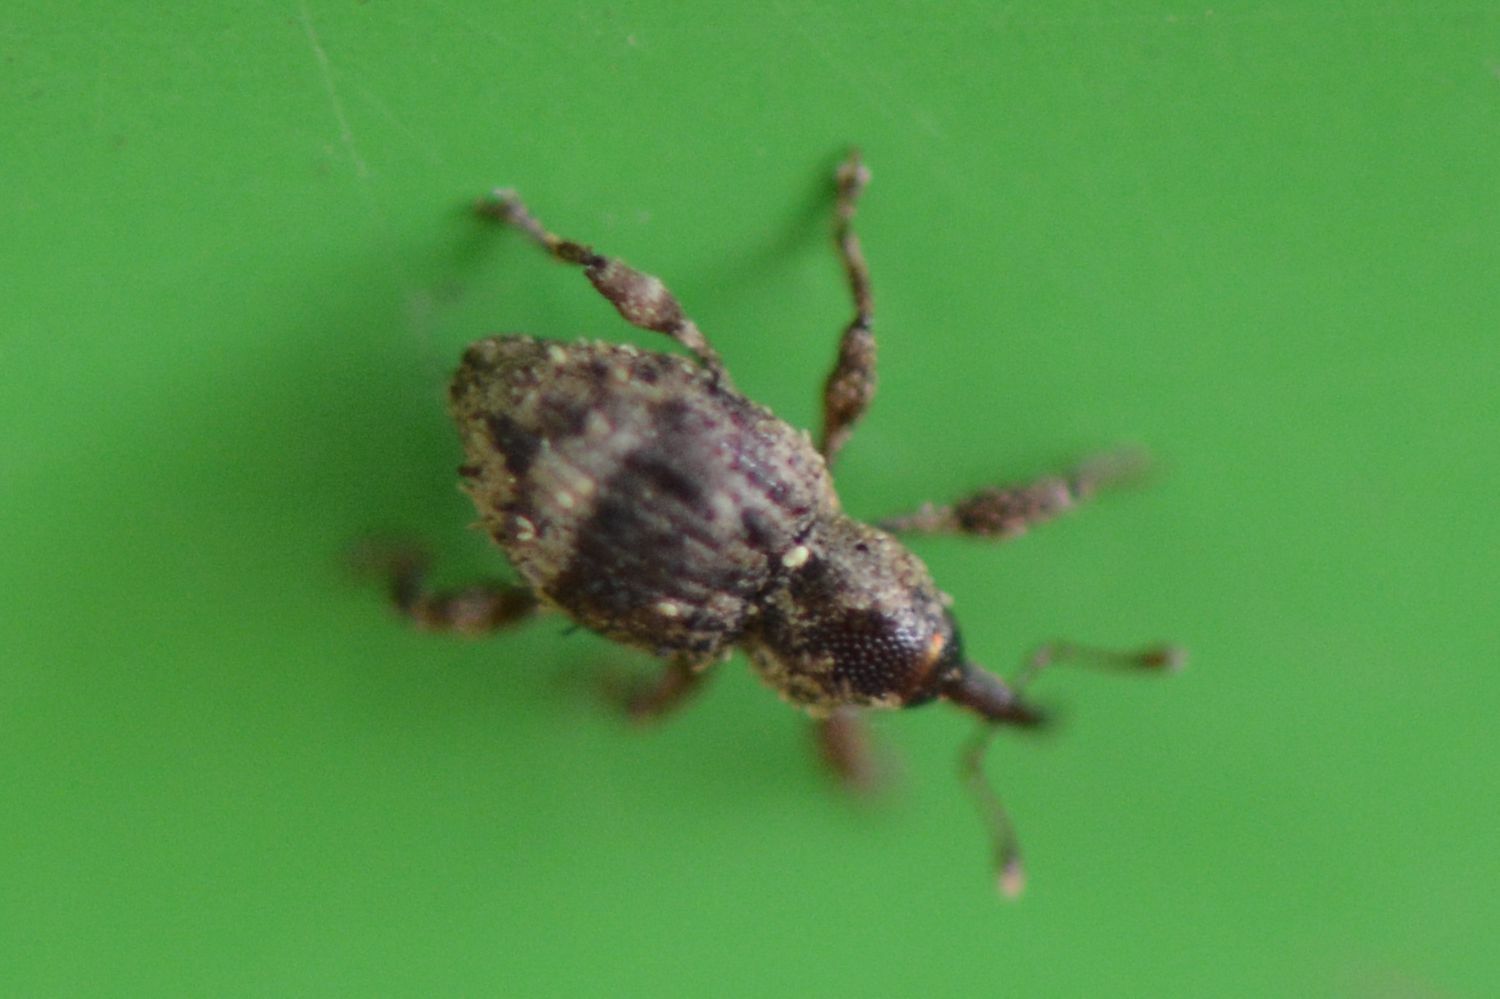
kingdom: Animalia
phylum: Arthropoda
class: Insecta
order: Coleoptera
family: Curculionidae
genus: Trachodes
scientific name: Trachodes hispidus
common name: Weevil
